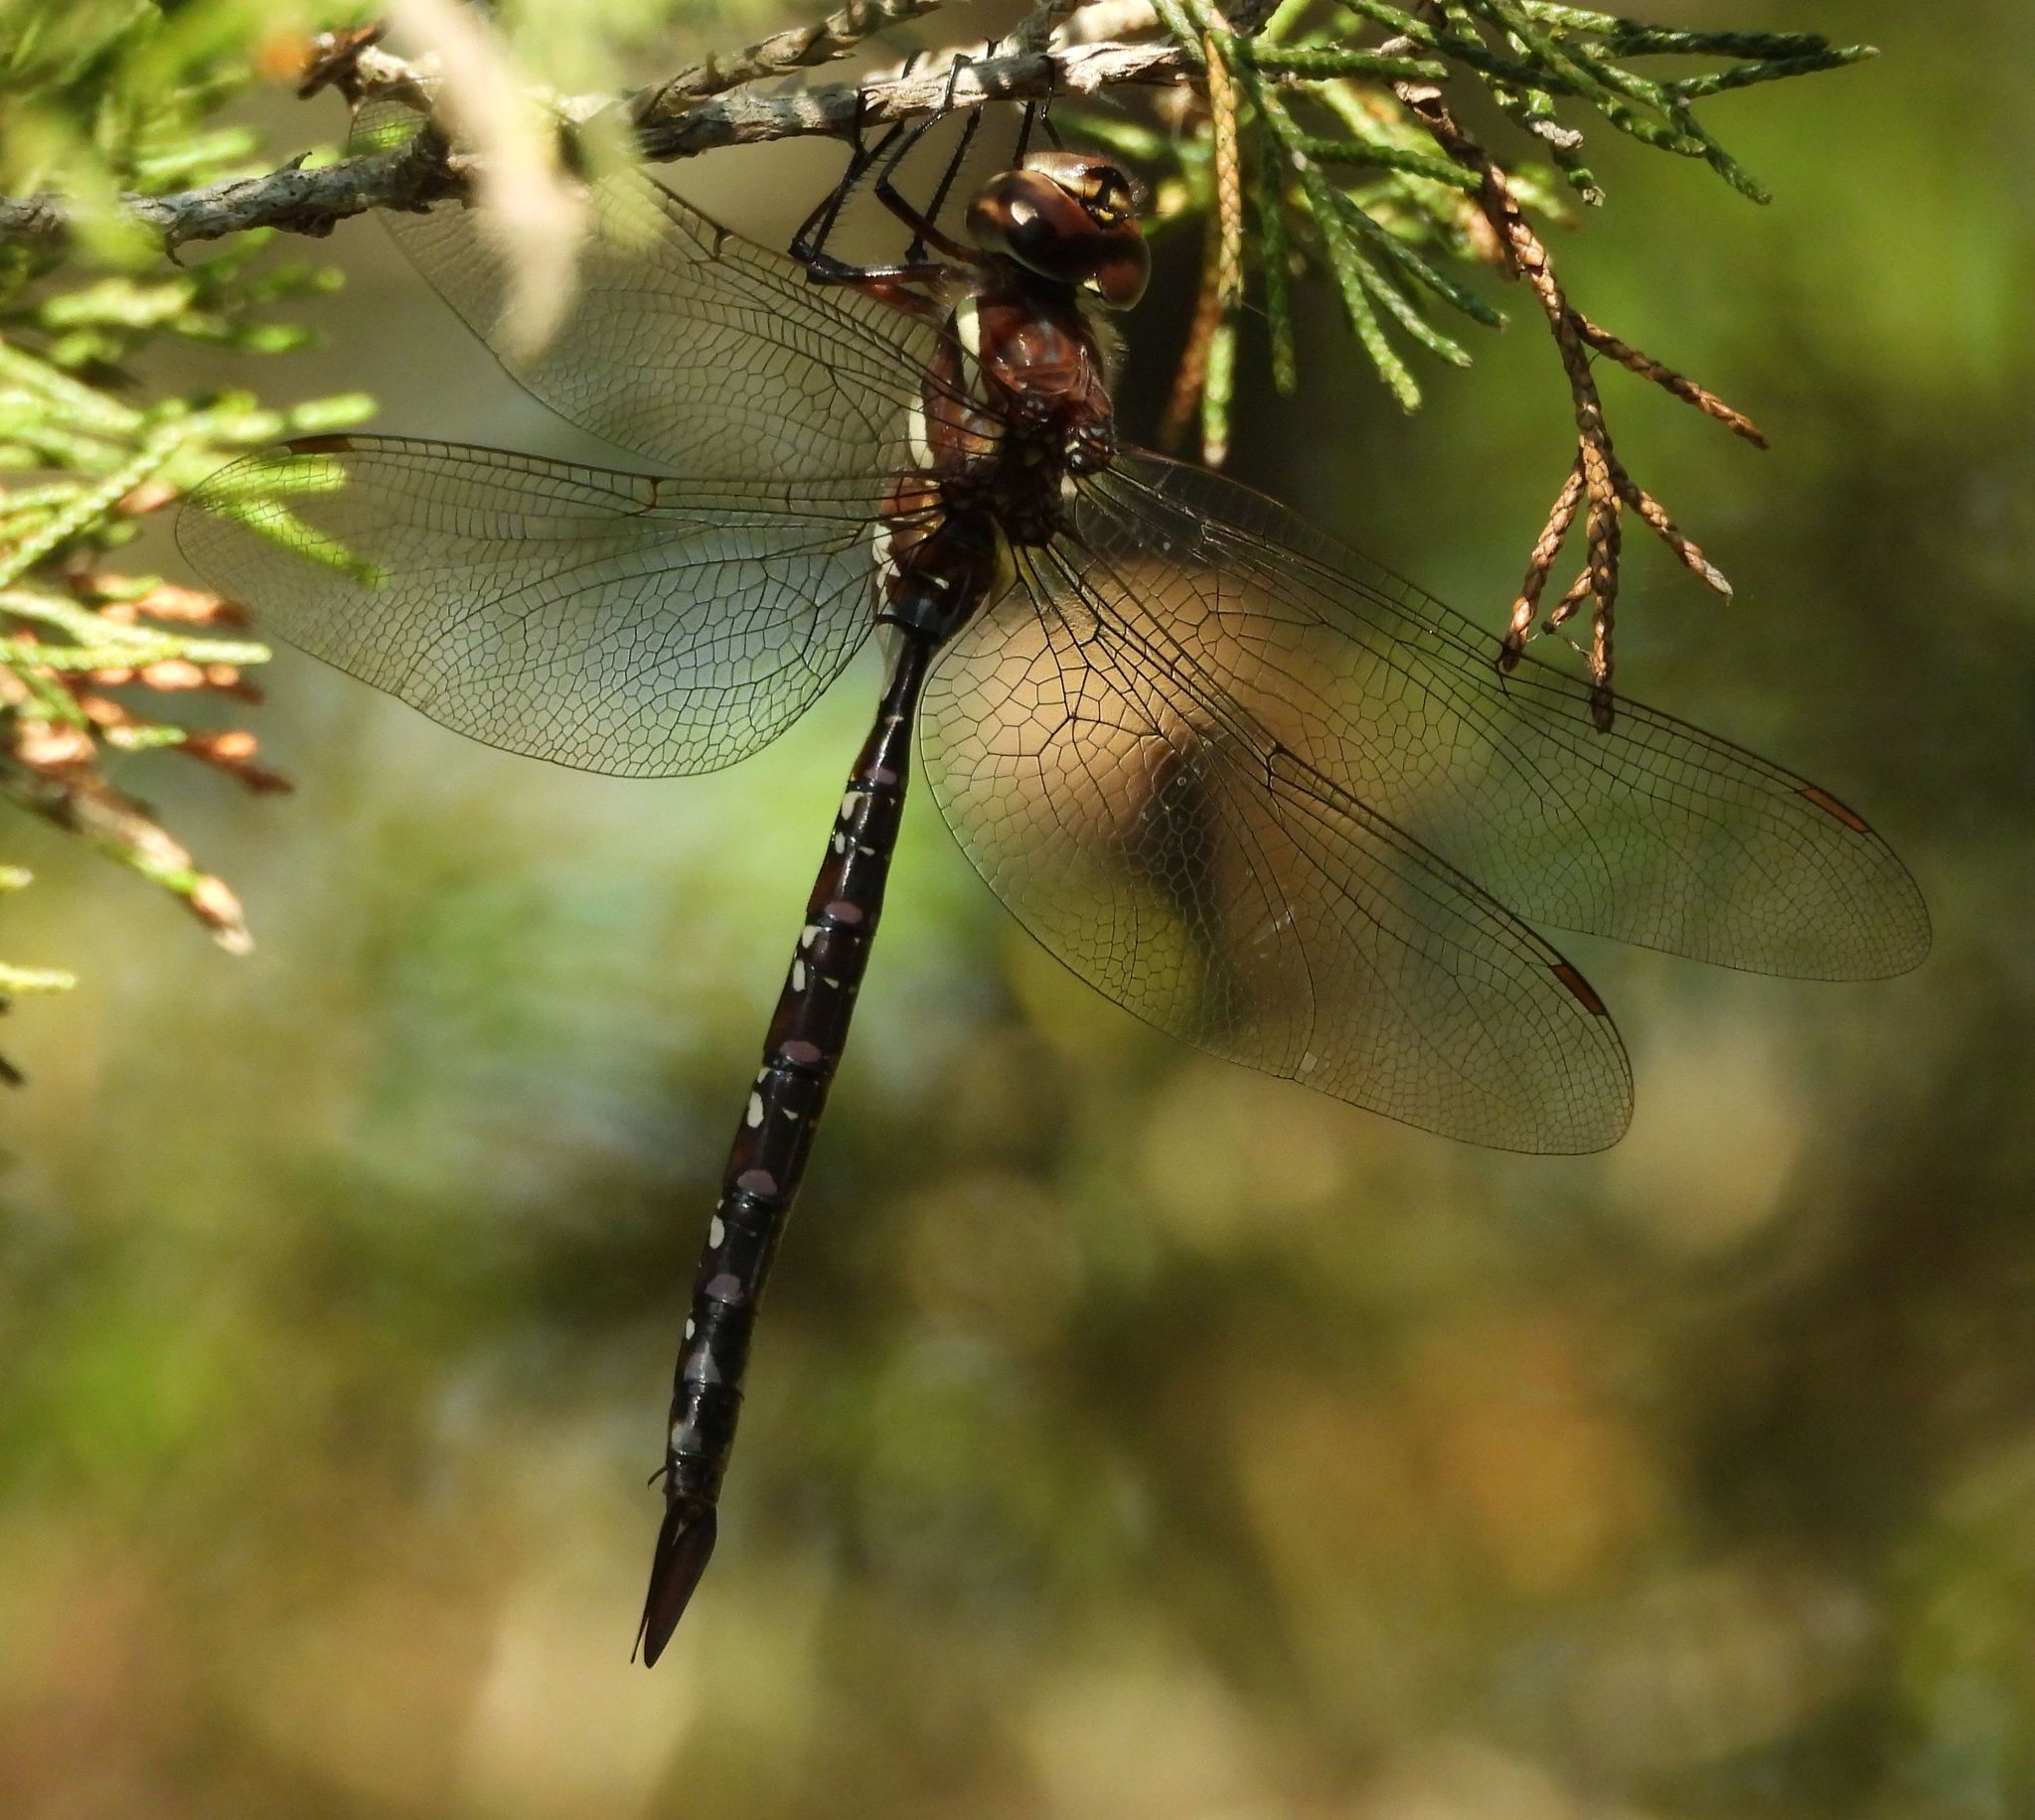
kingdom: Animalia
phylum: Arthropoda
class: Insecta
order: Odonata
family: Aeshnidae
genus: Aeshna
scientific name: Aeshna tuberculifera
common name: Aeschne à tubercules
